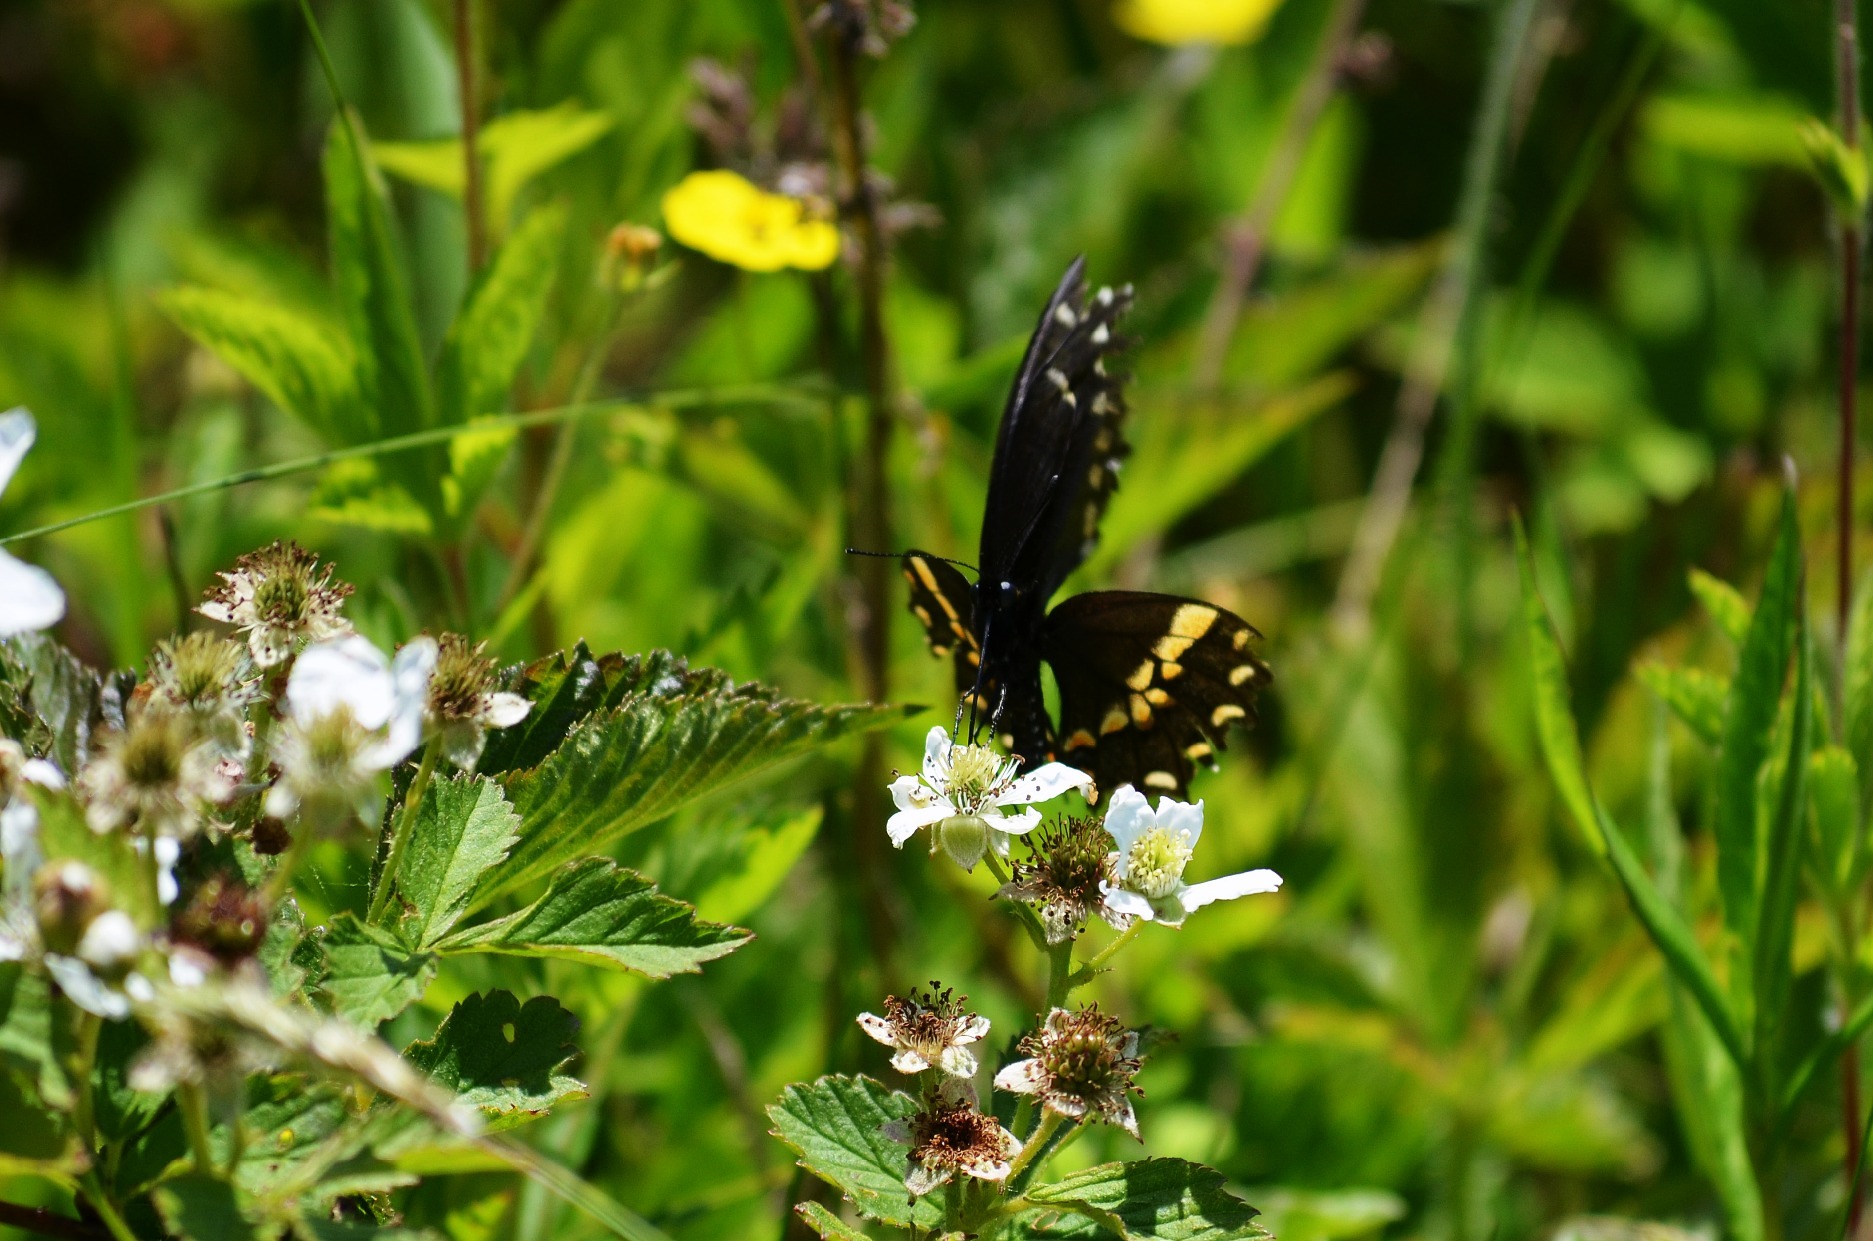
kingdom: Animalia
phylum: Arthropoda
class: Insecta
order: Lepidoptera
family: Papilionidae
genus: Papilio
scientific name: Papilio polyxenes
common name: Black swallowtail
